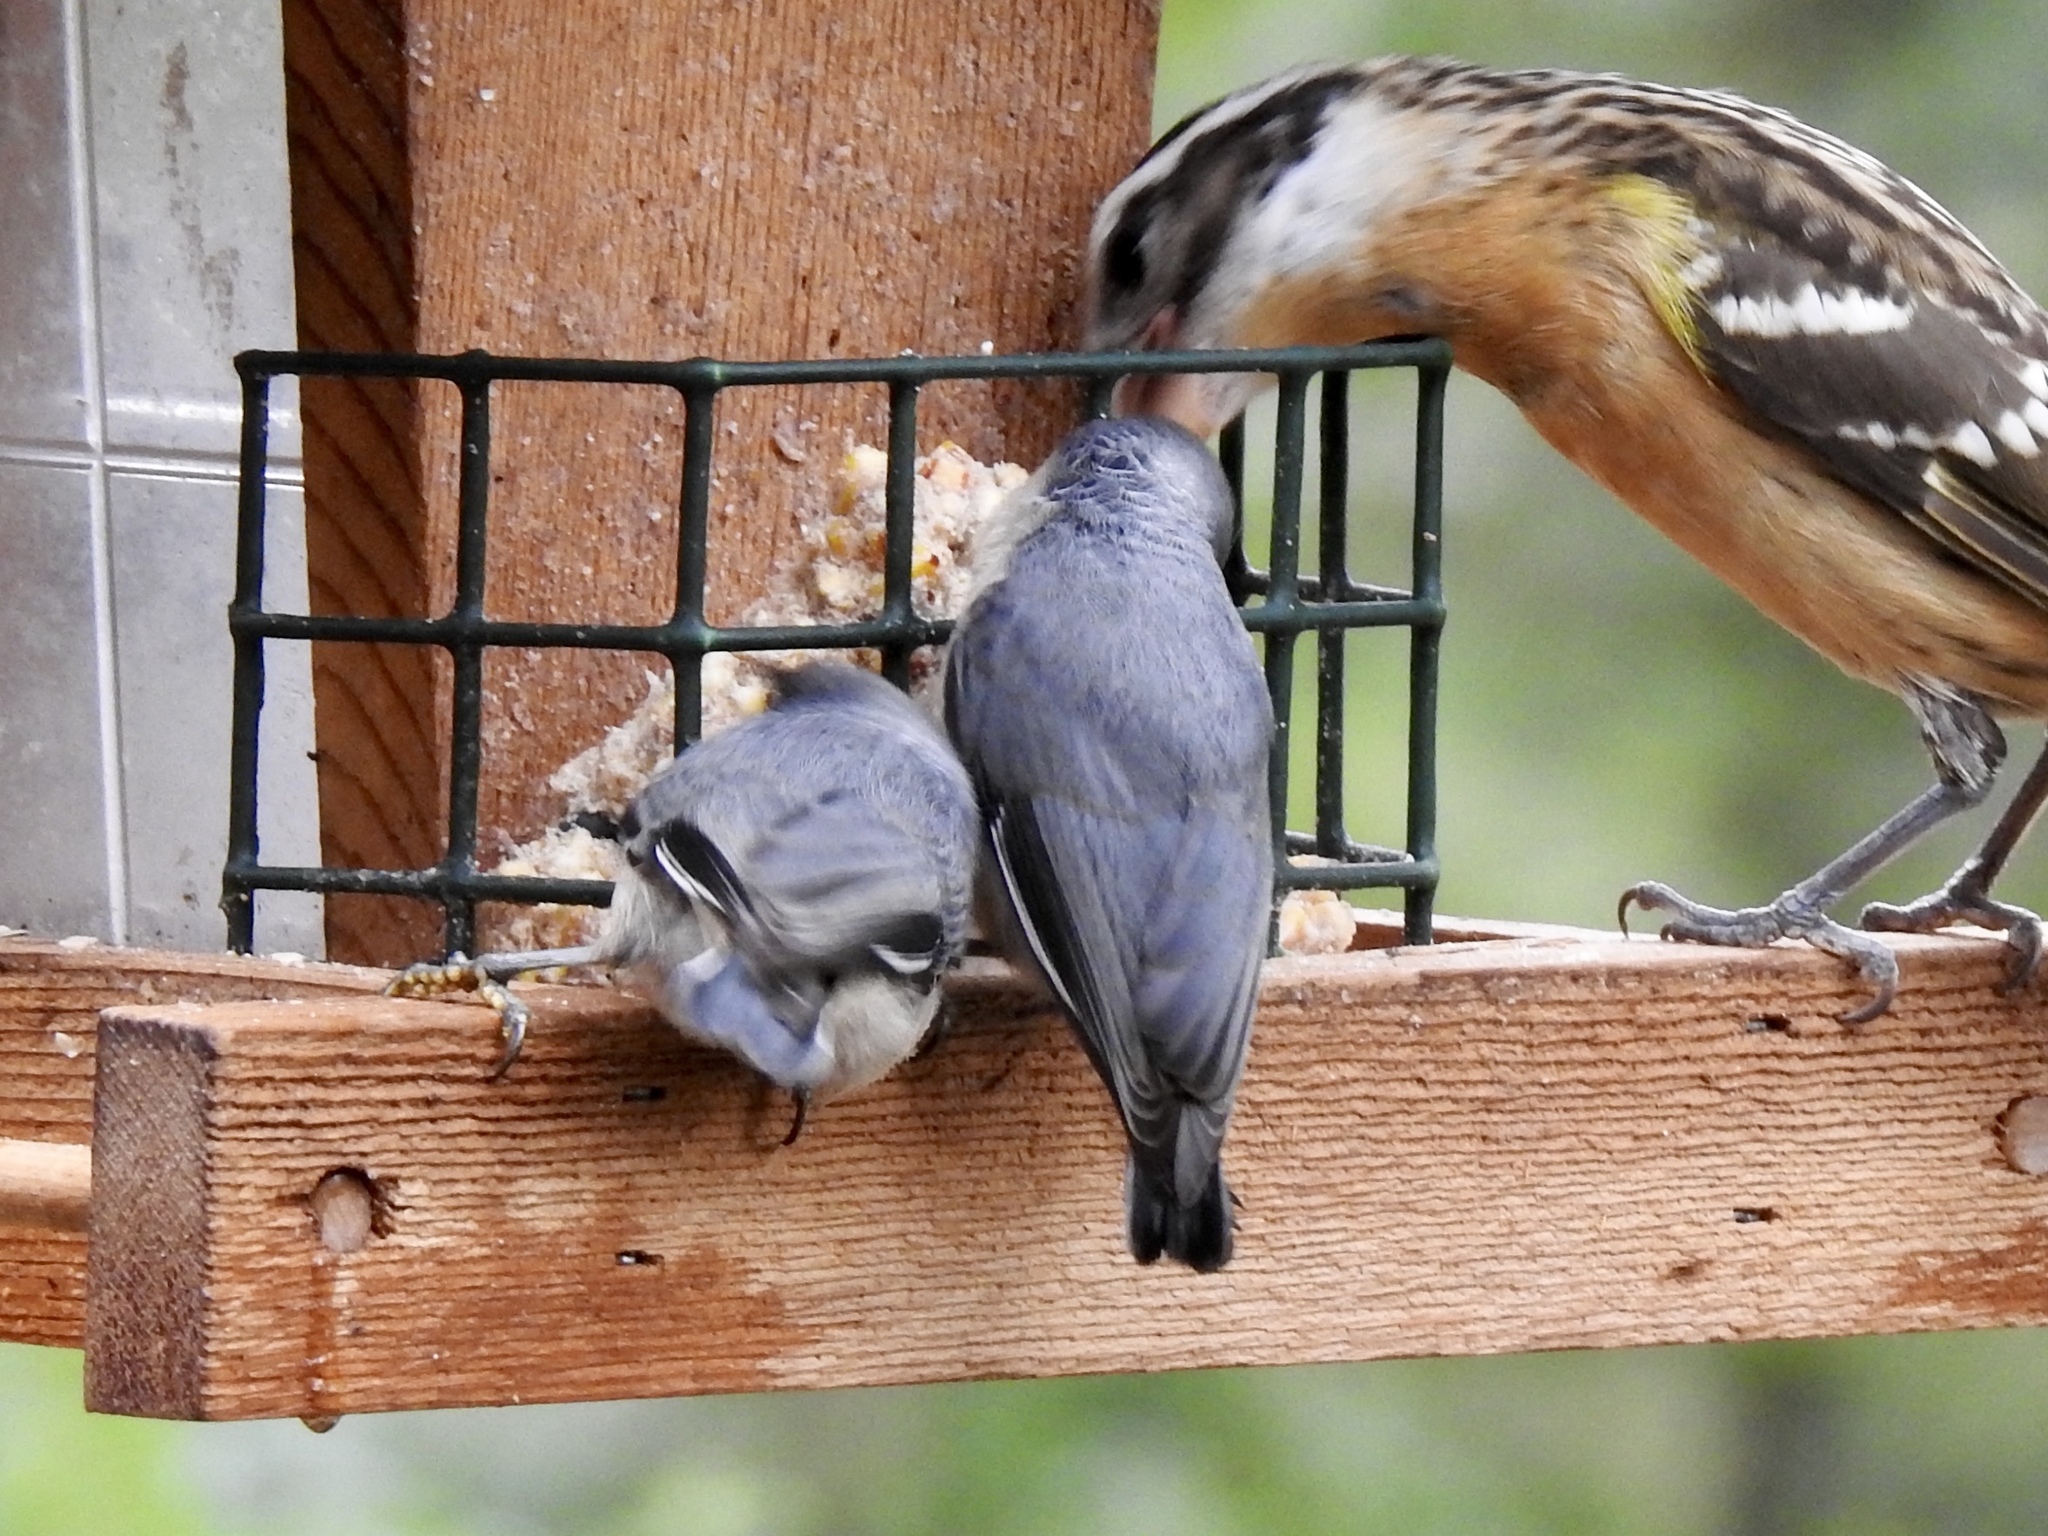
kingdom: Animalia
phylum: Chordata
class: Aves
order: Passeriformes
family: Sittidae
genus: Sitta
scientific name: Sitta pygmaea
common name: Pygmy nuthatch
